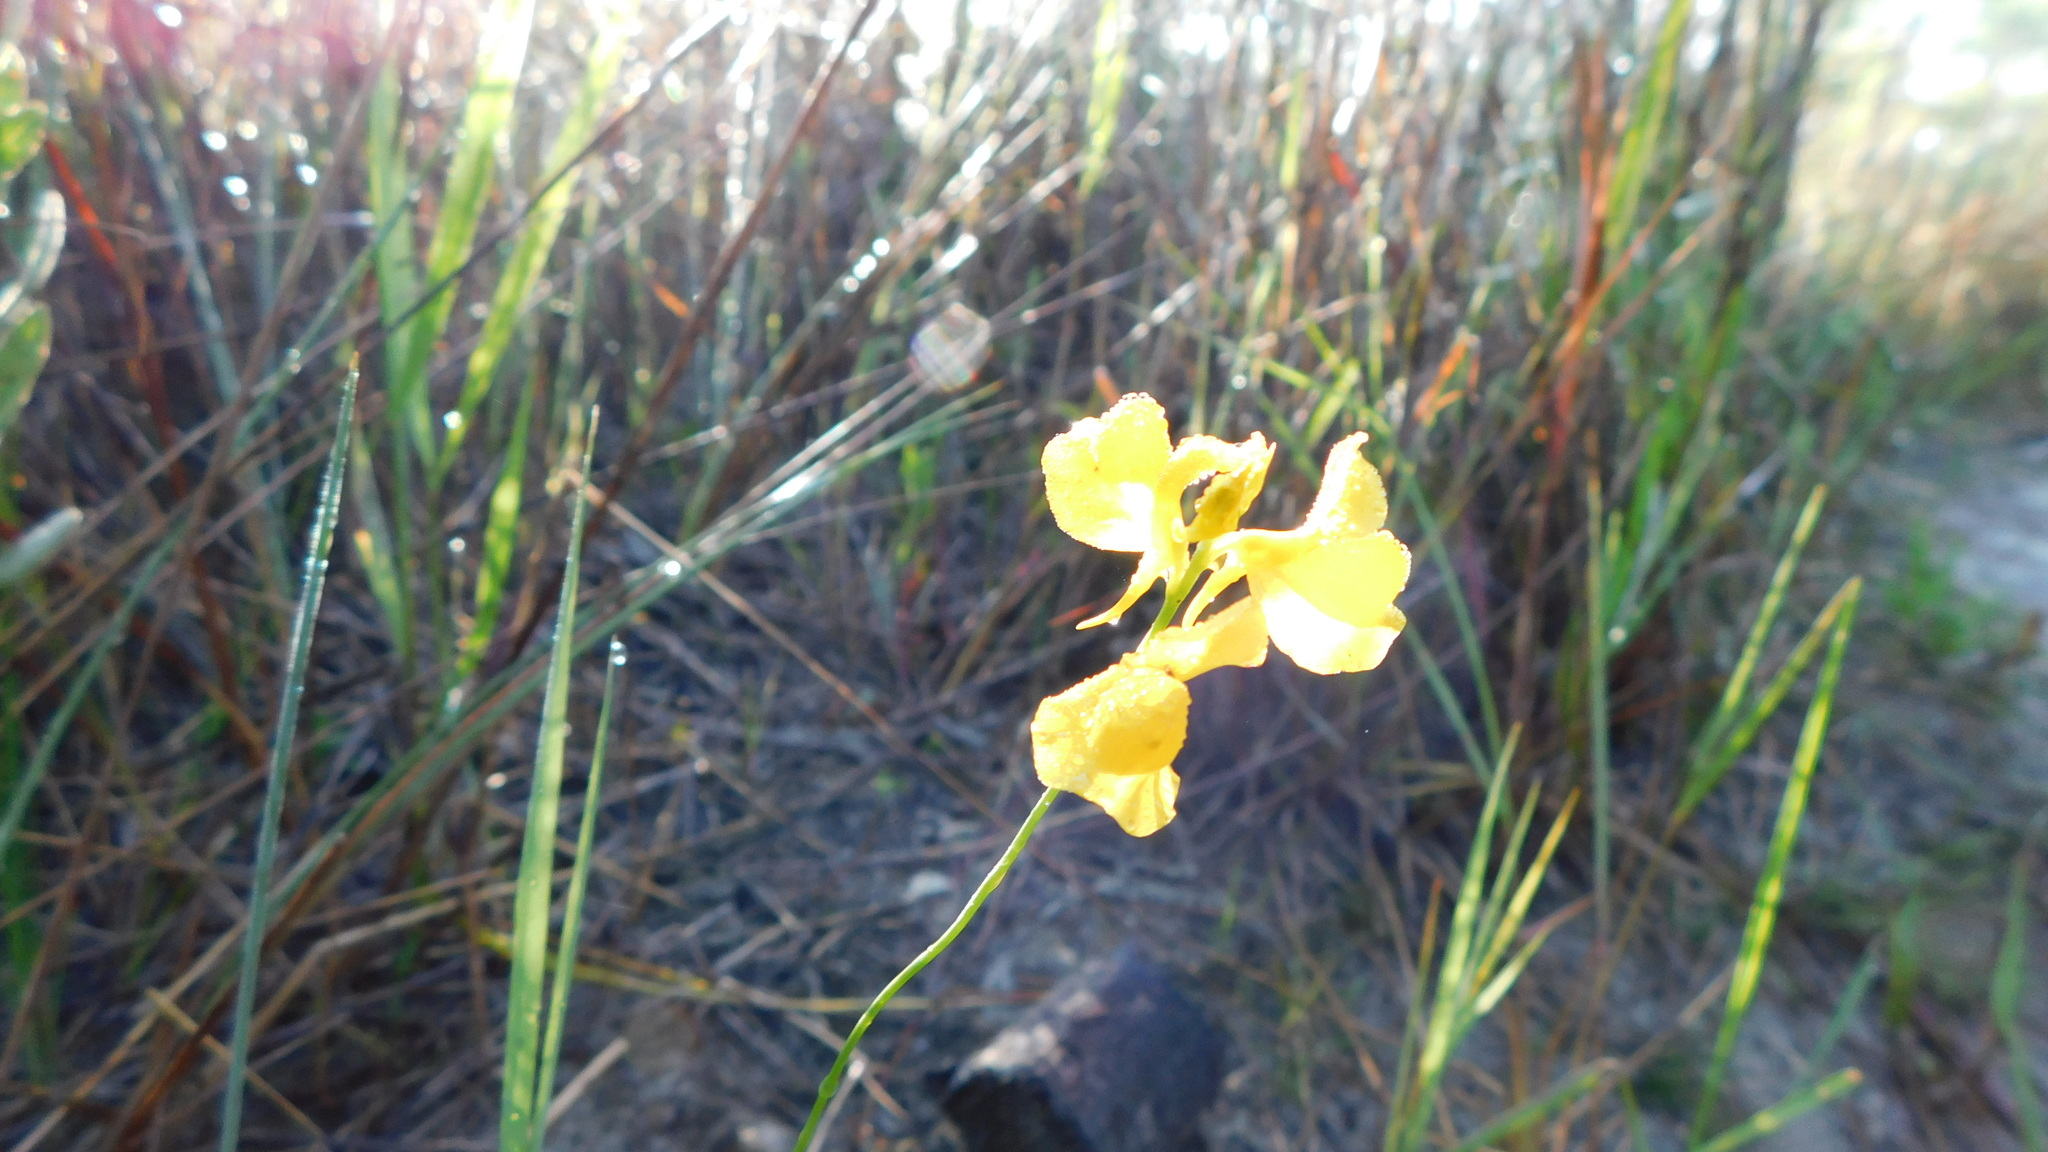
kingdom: Plantae
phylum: Tracheophyta
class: Magnoliopsida
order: Lamiales
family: Lentibulariaceae
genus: Utricularia
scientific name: Utricularia cornuta
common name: Horned bladderwort
